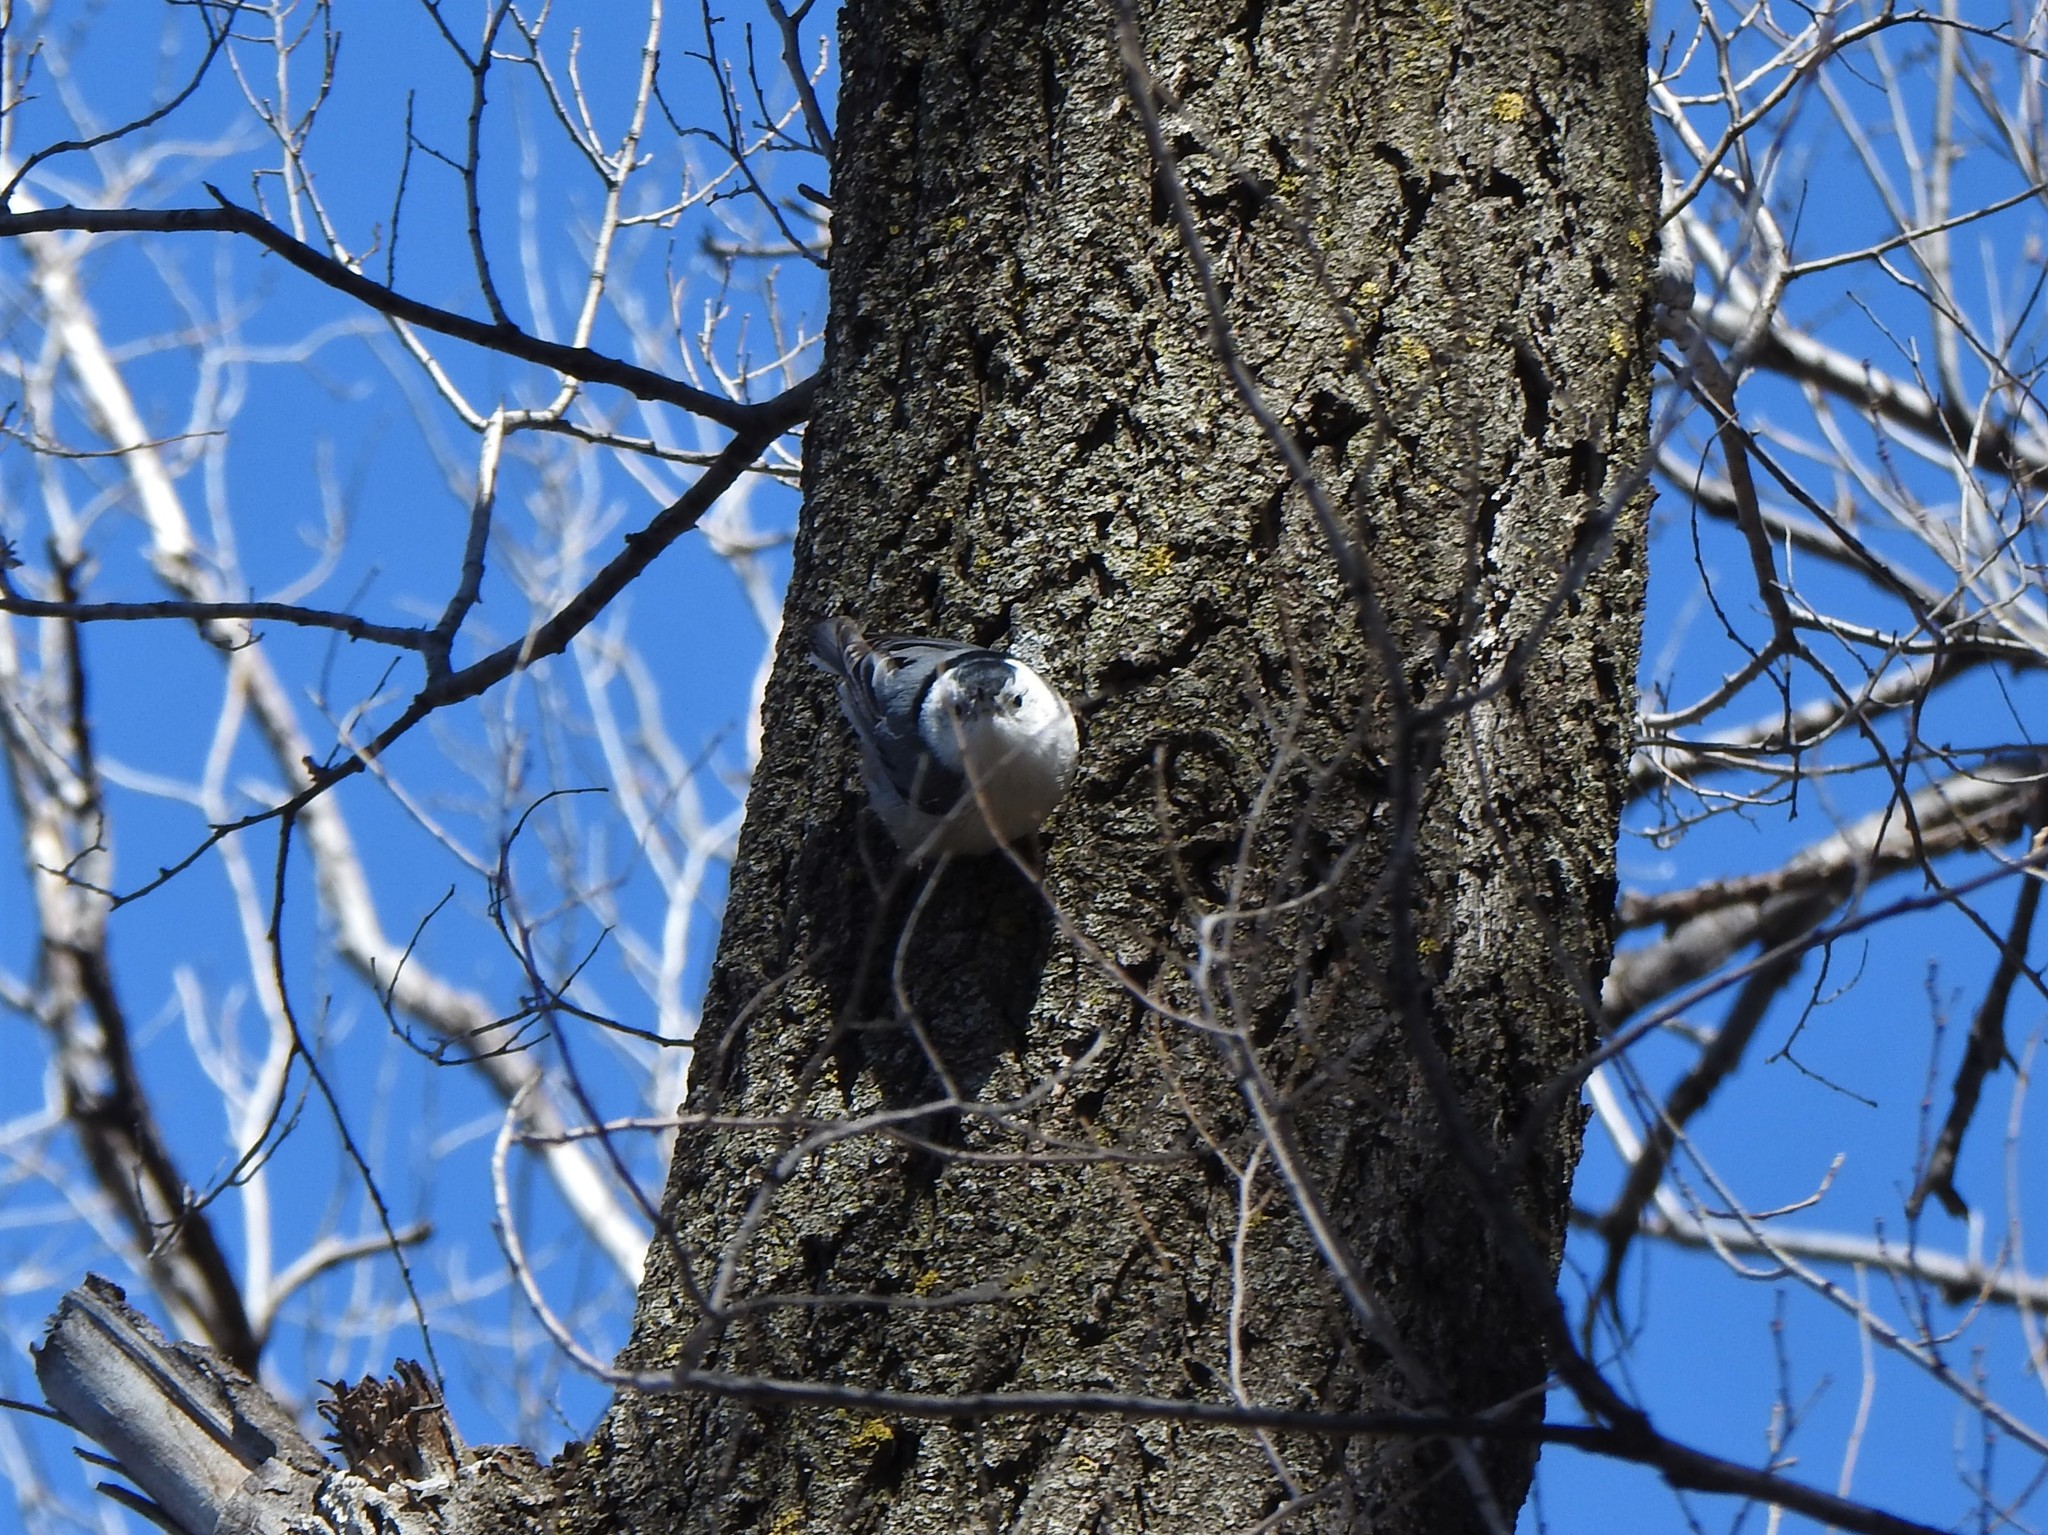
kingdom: Animalia
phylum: Chordata
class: Aves
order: Passeriformes
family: Sittidae
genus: Sitta
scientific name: Sitta carolinensis
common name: White-breasted nuthatch
